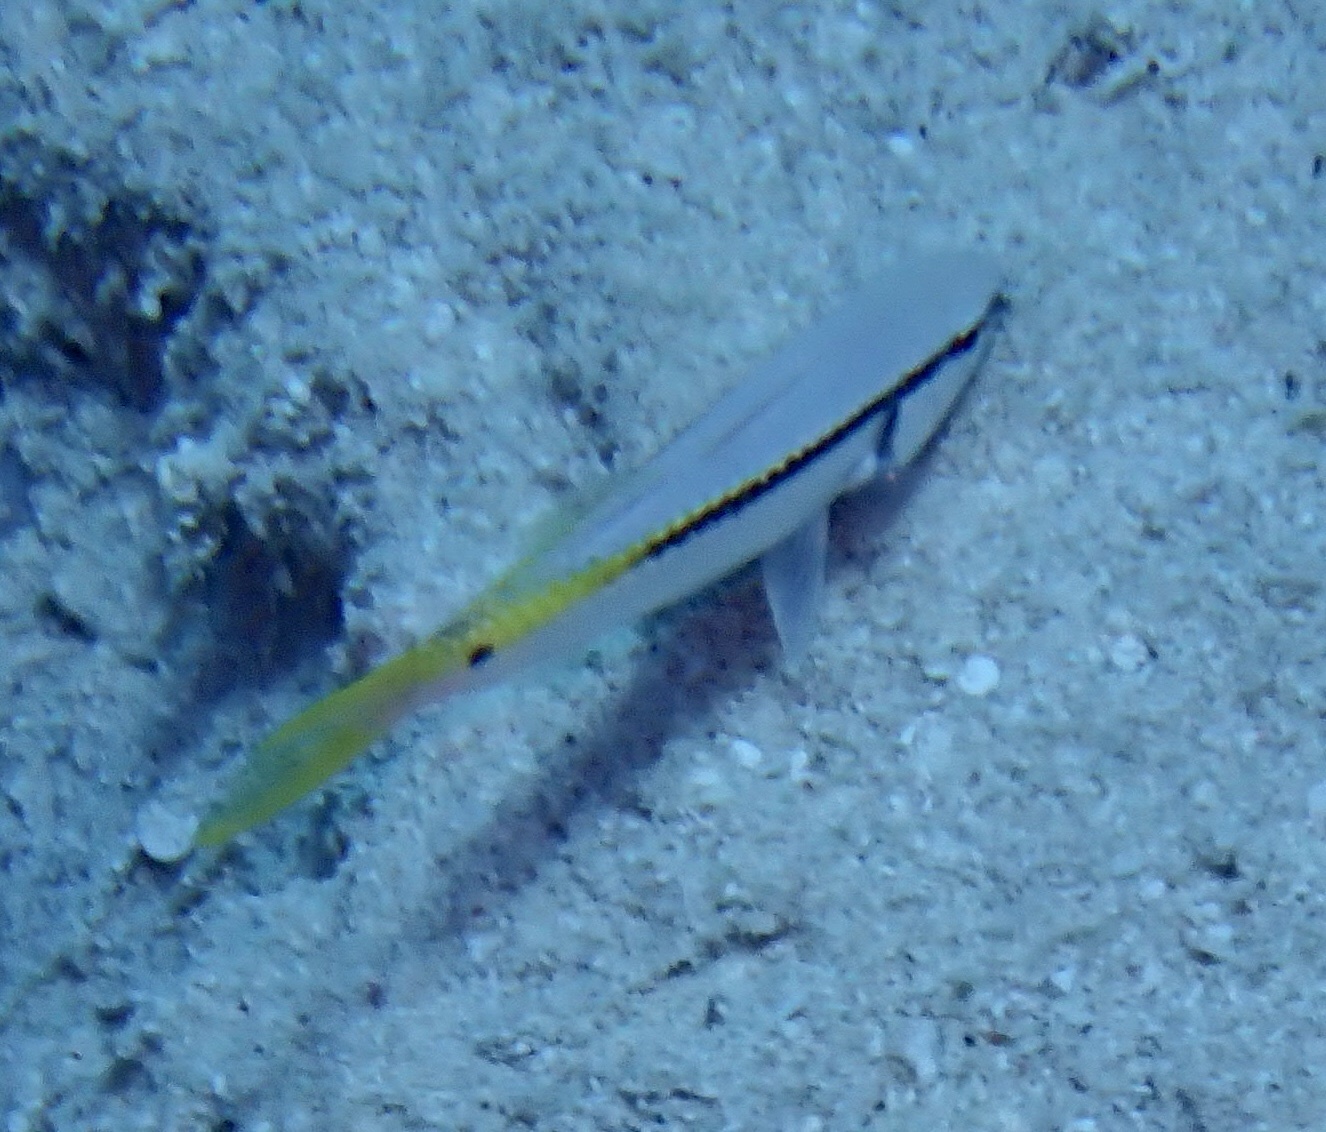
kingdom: Animalia
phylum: Chordata
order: Perciformes
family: Mullidae
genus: Parupeneus
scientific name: Parupeneus forsskali
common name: Red sea goatfish
